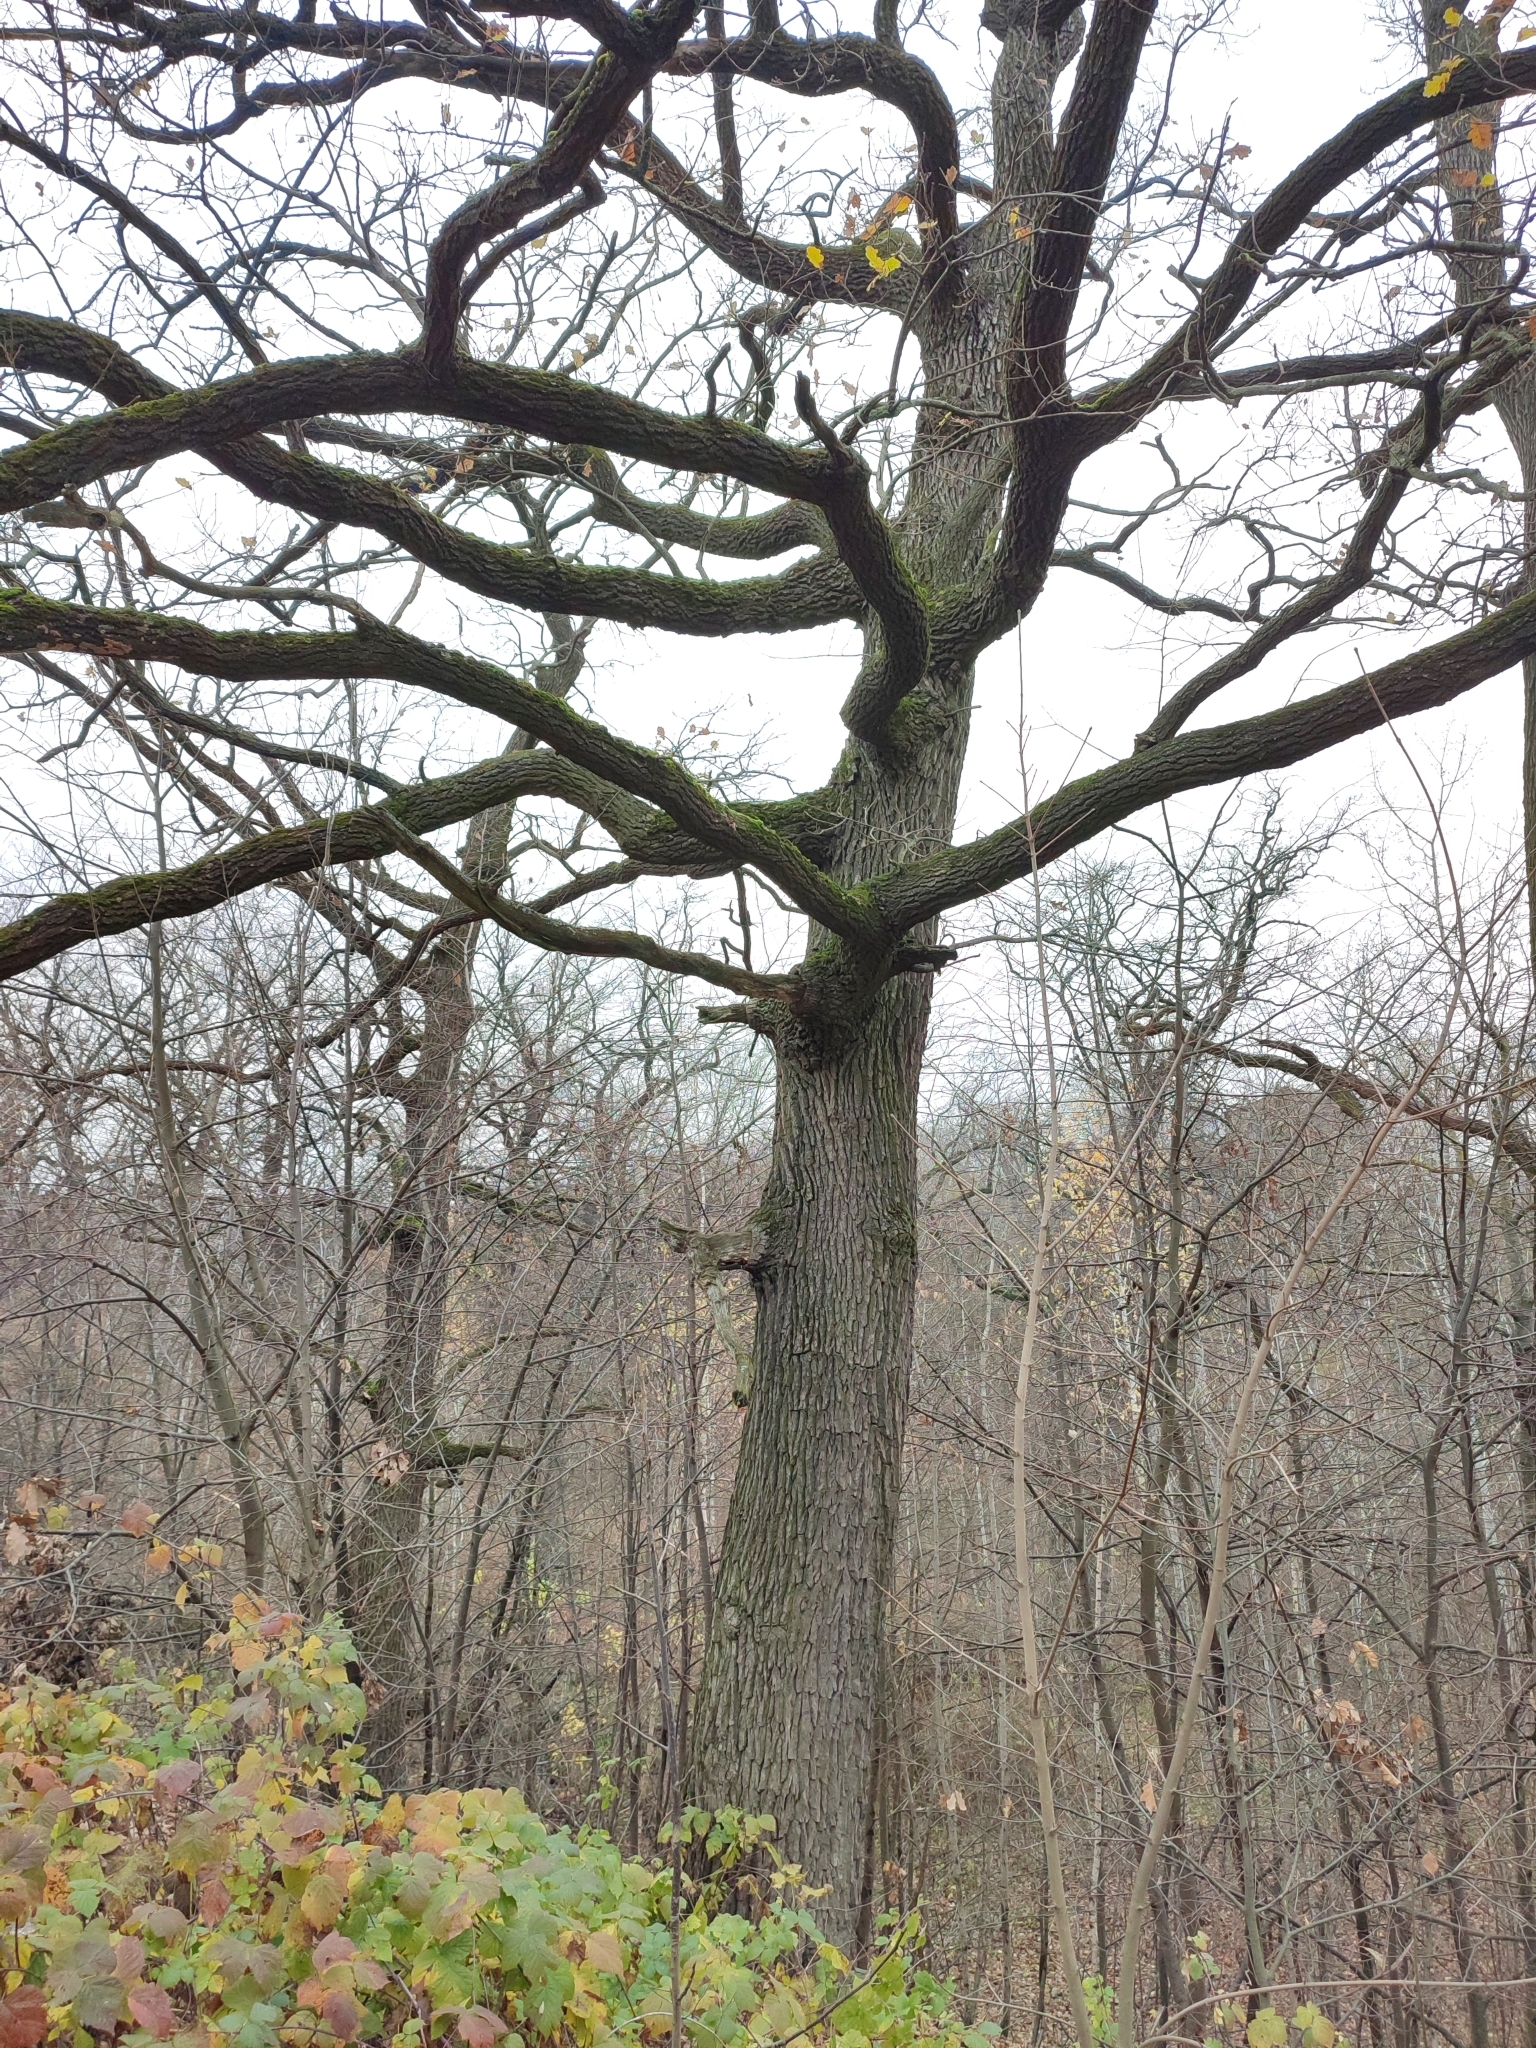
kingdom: Plantae
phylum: Tracheophyta
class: Magnoliopsida
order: Fagales
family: Fagaceae
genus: Quercus
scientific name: Quercus robur
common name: Pedunculate oak
